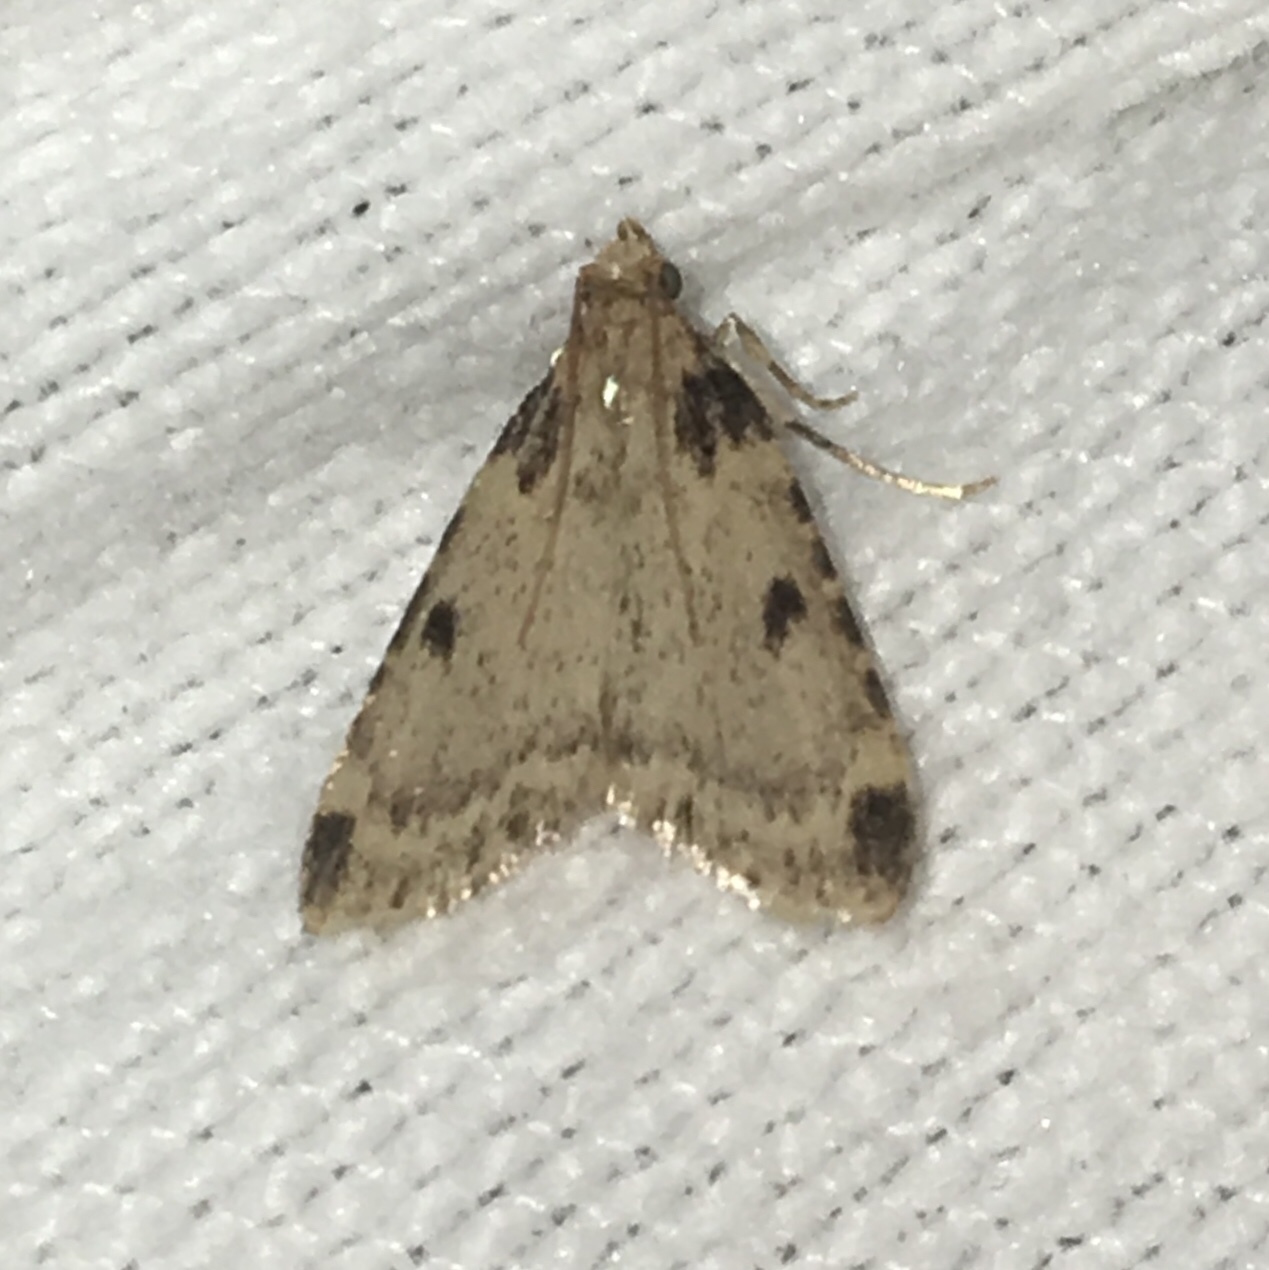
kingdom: Animalia
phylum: Arthropoda
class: Insecta
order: Lepidoptera
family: Pyralidae
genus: Aglossa
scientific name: Aglossa costiferalis
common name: Calico pyralid moth
